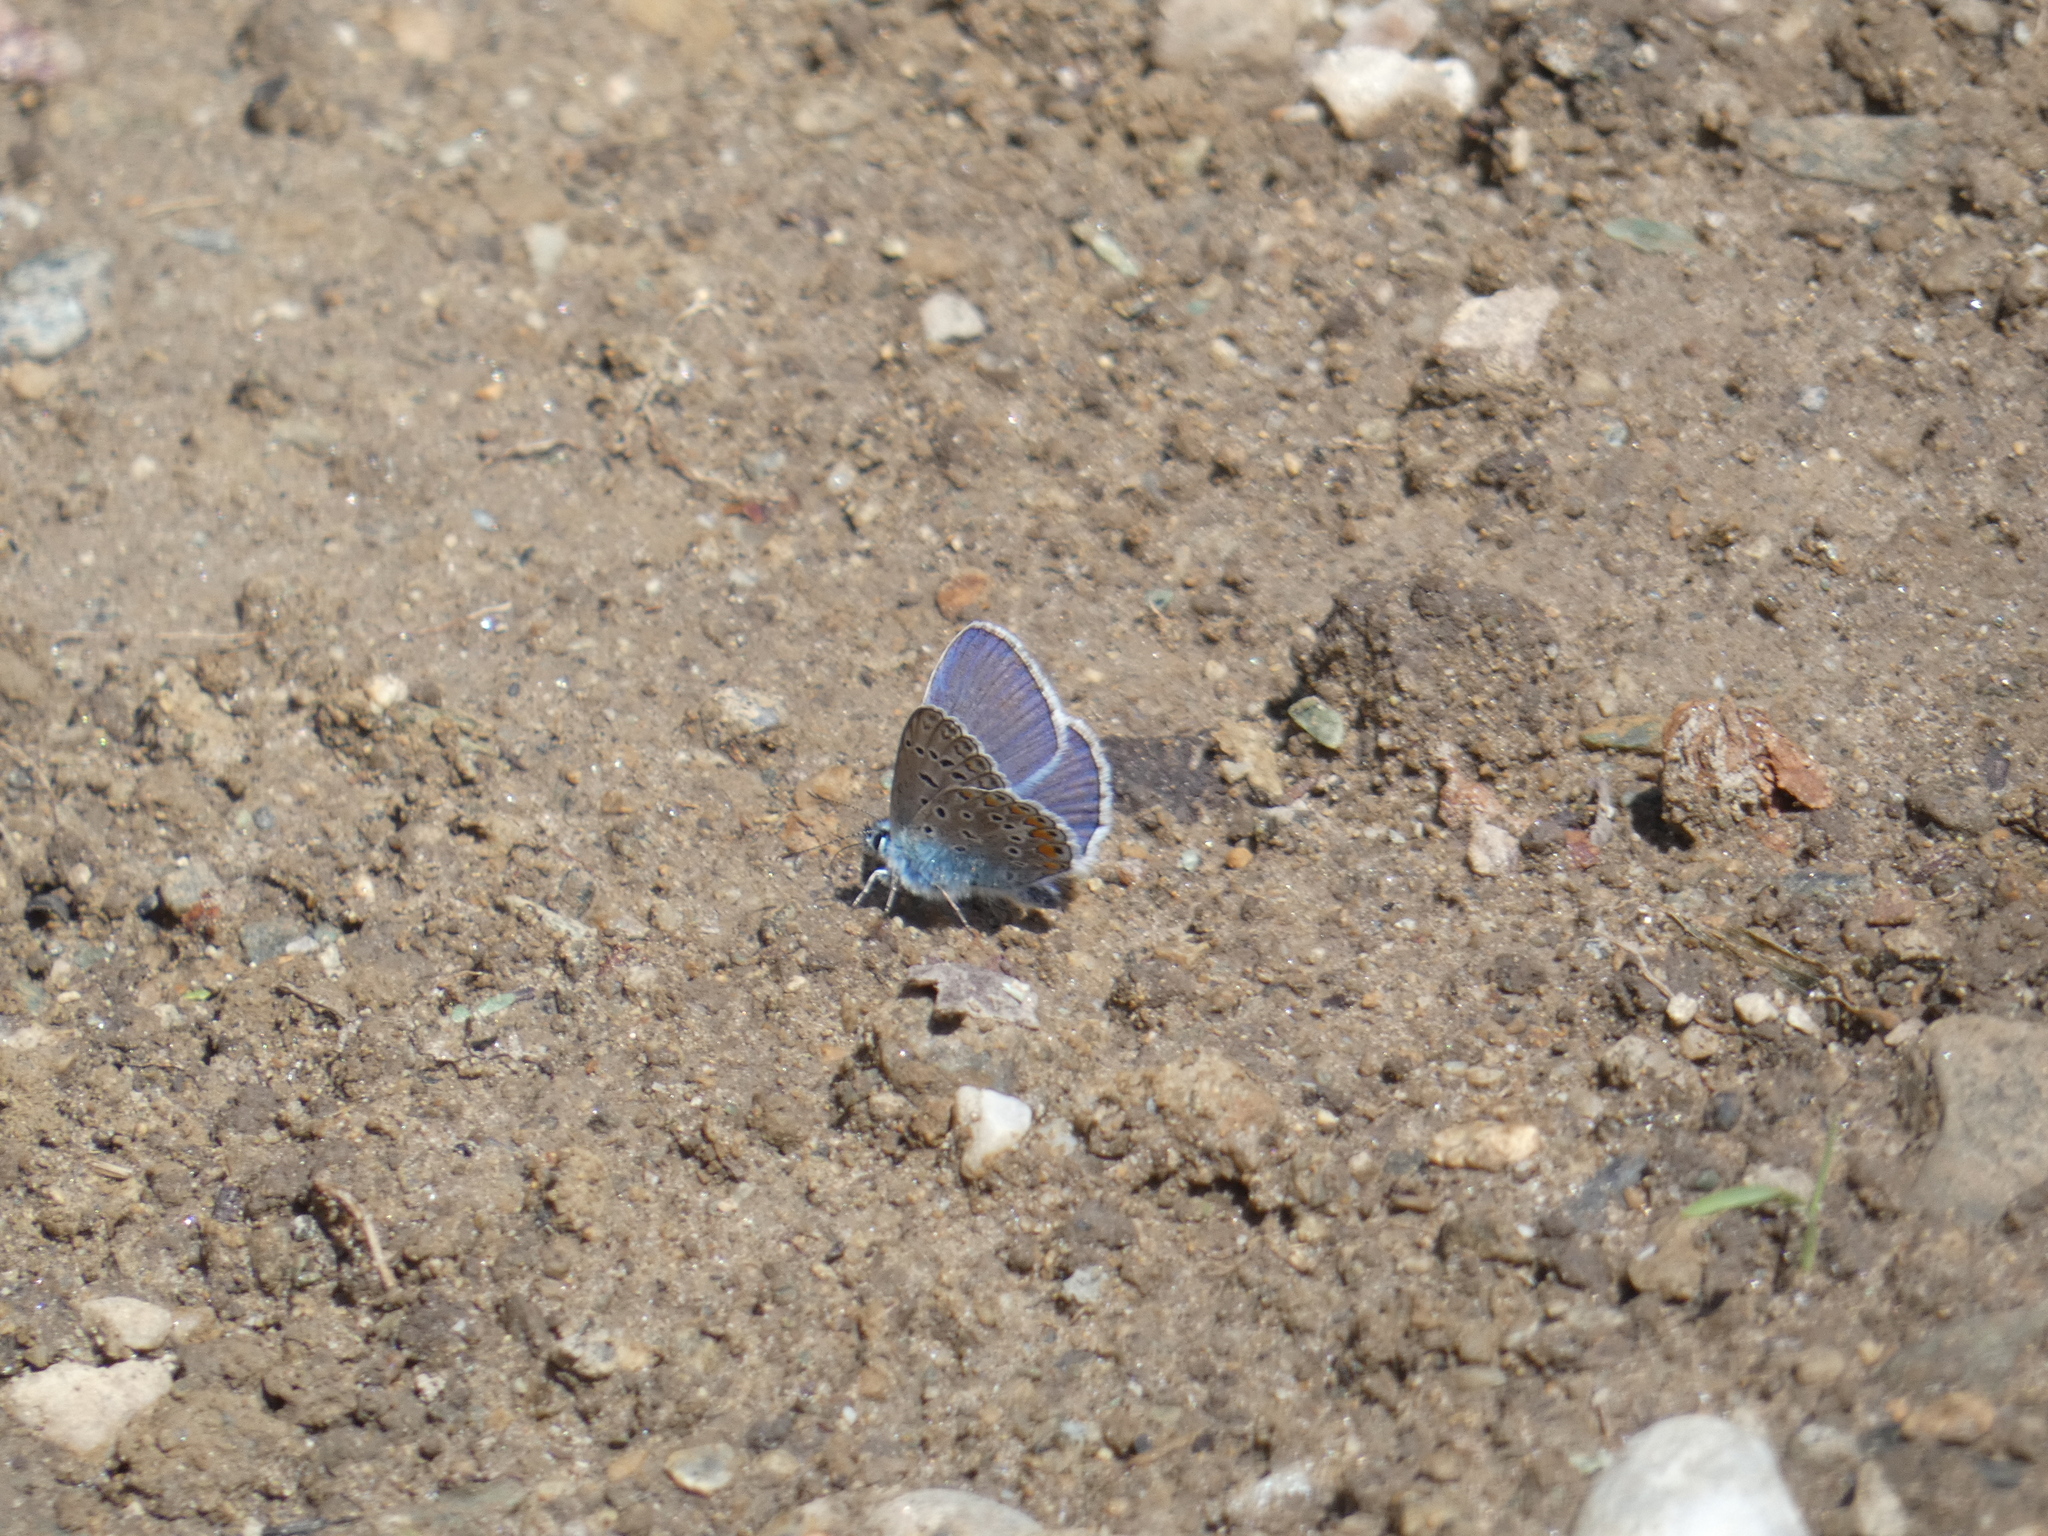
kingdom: Animalia
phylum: Arthropoda
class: Insecta
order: Lepidoptera
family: Lycaenidae
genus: Polyommatus
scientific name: Polyommatus icarus
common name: Common blue
